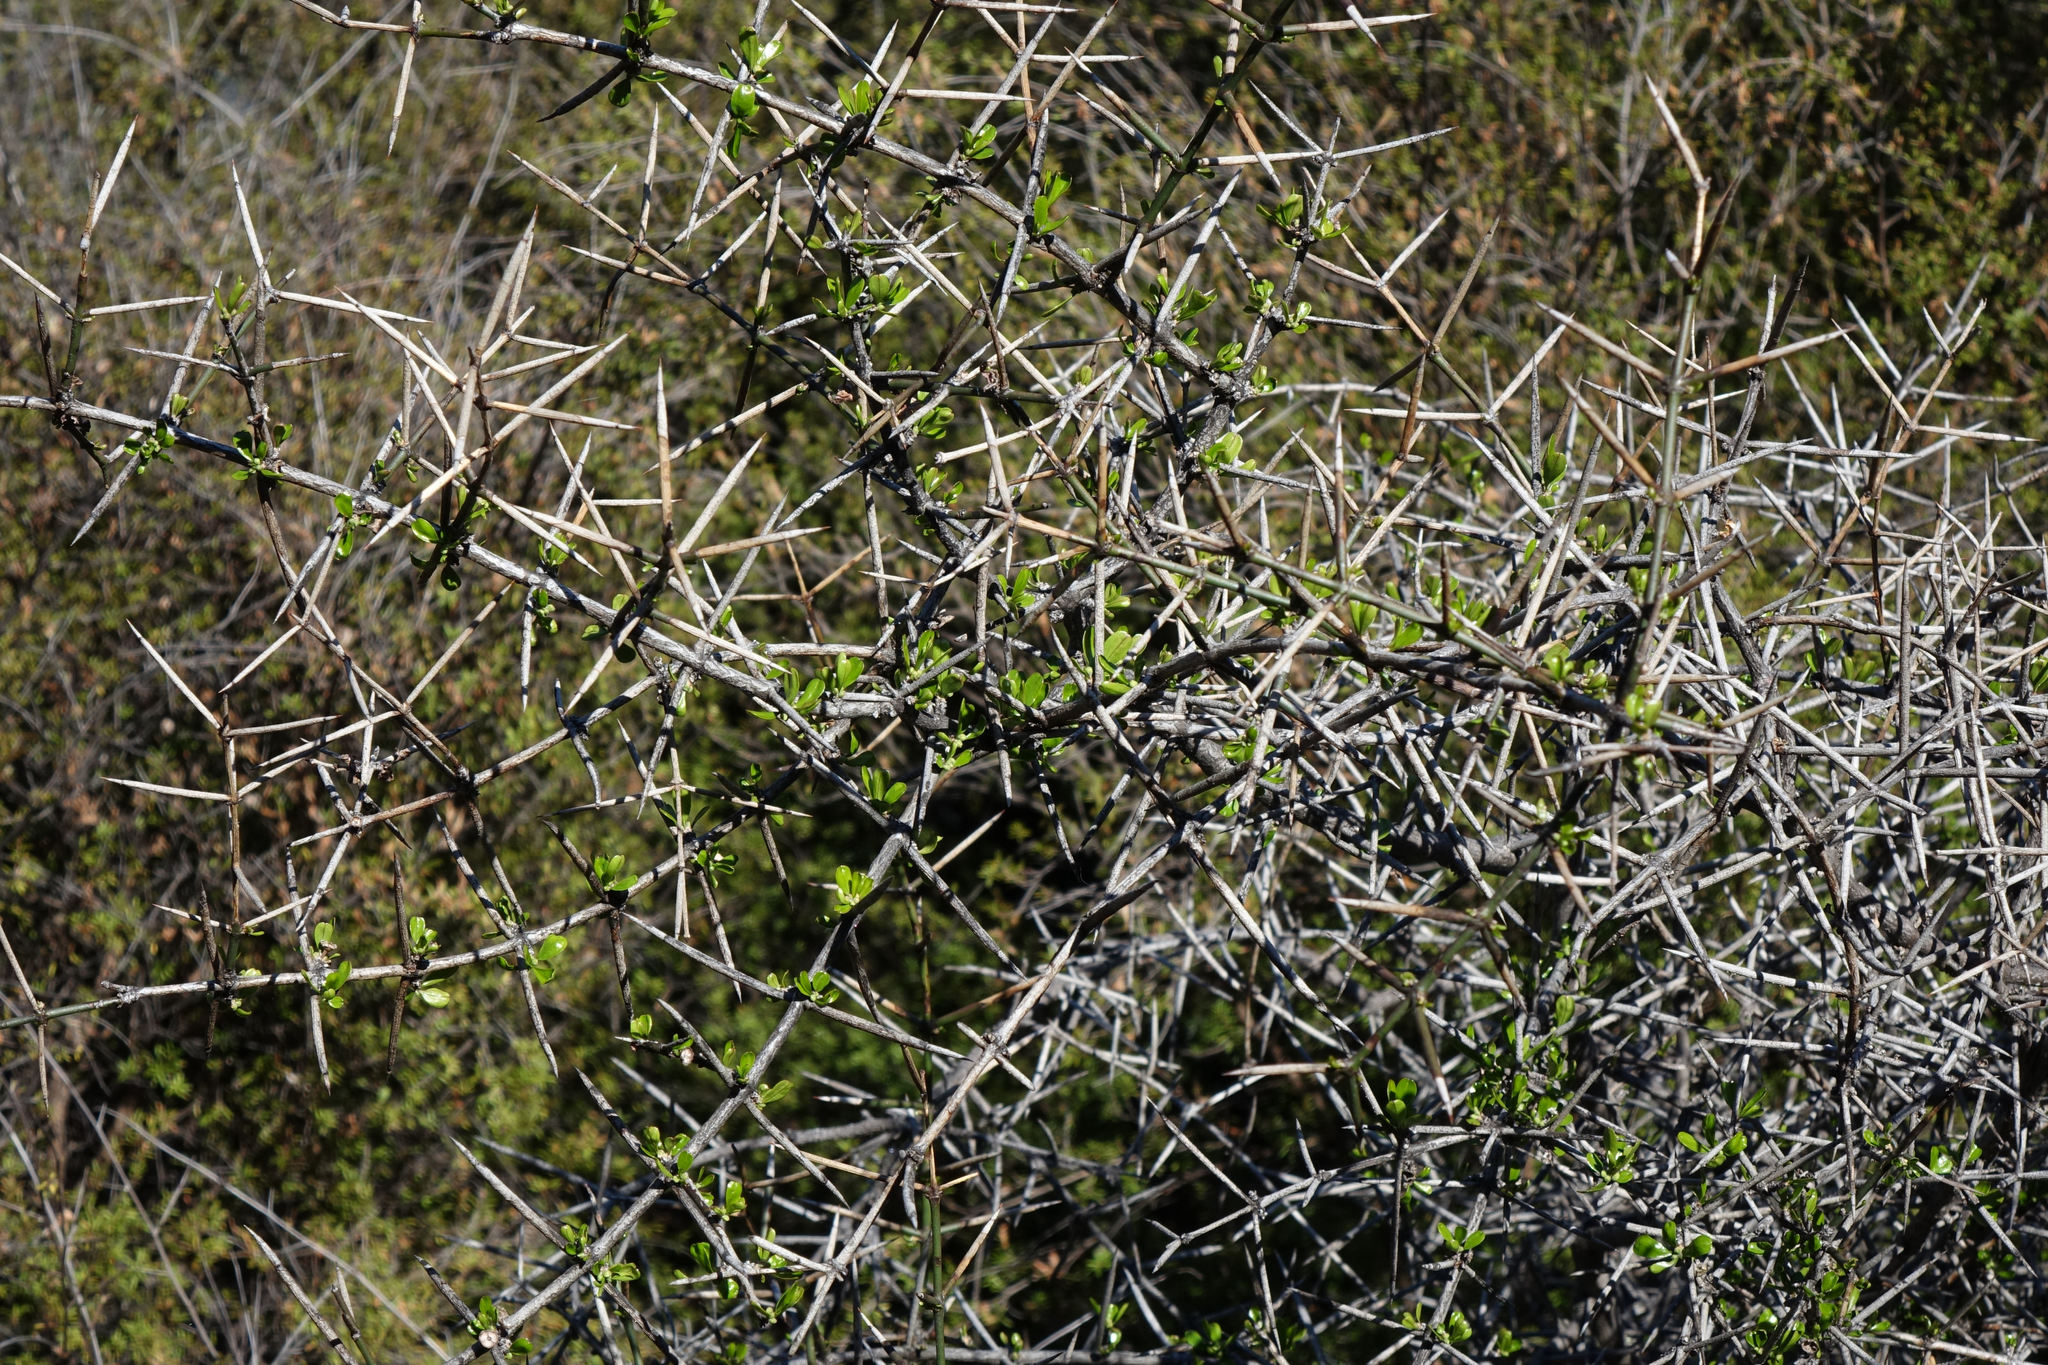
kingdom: Plantae
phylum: Tracheophyta
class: Magnoliopsida
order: Rosales
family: Rhamnaceae
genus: Discaria
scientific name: Discaria toumatou
